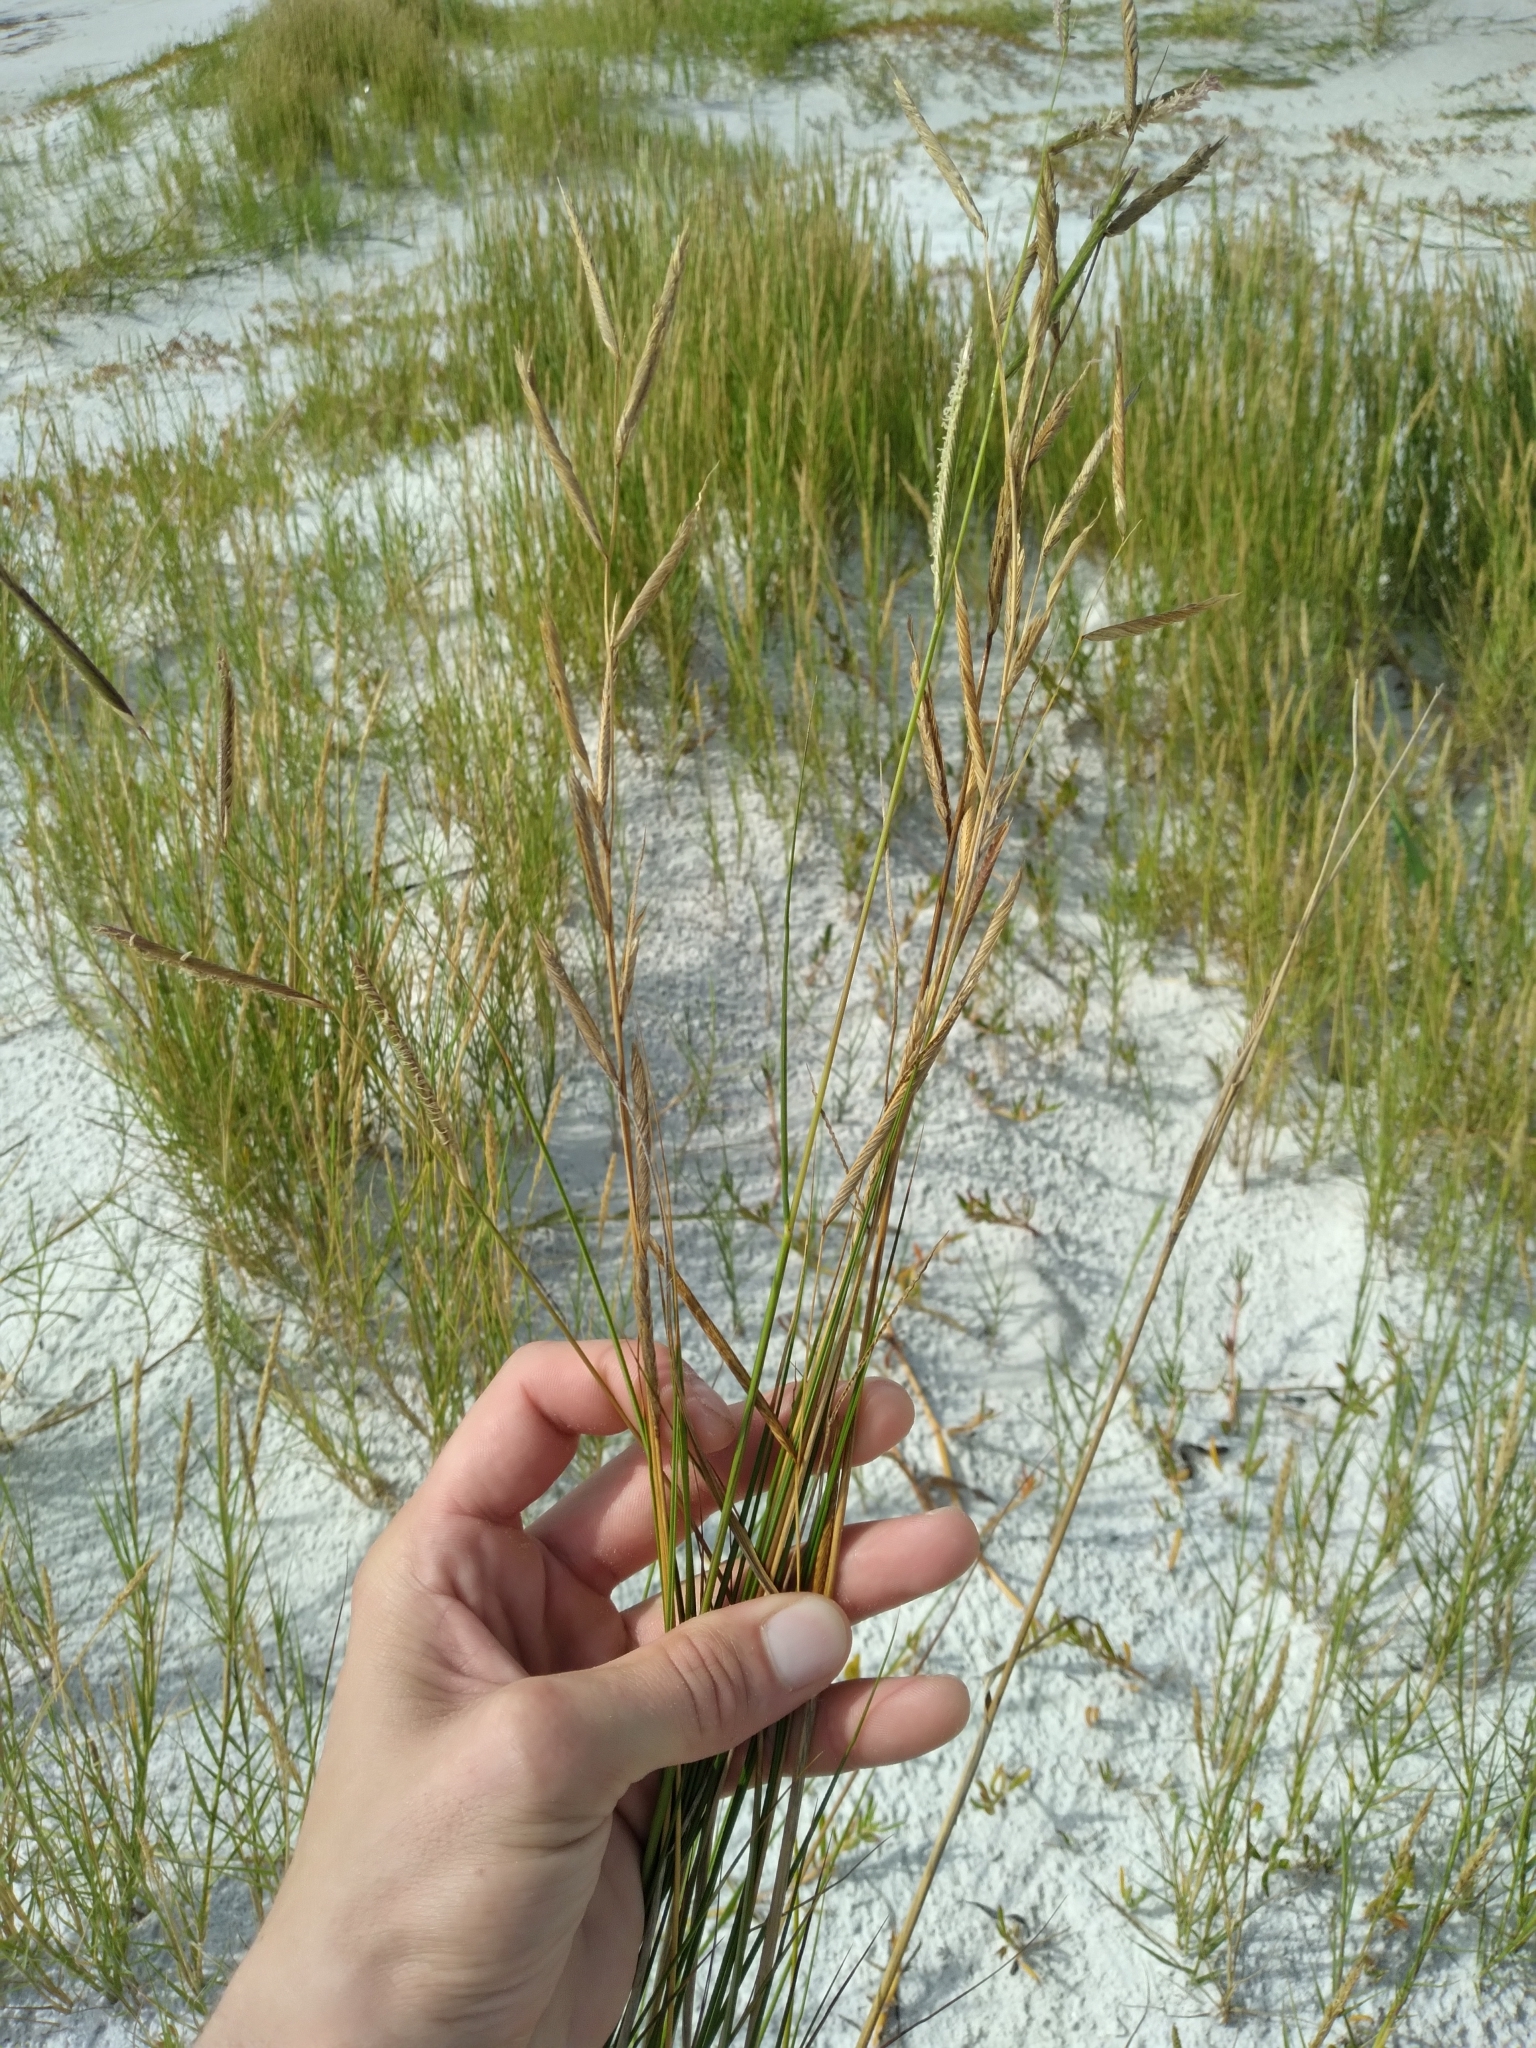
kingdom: Plantae
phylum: Tracheophyta
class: Liliopsida
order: Poales
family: Poaceae
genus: Sporobolus
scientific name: Sporobolus pumilus
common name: Highwater grass
